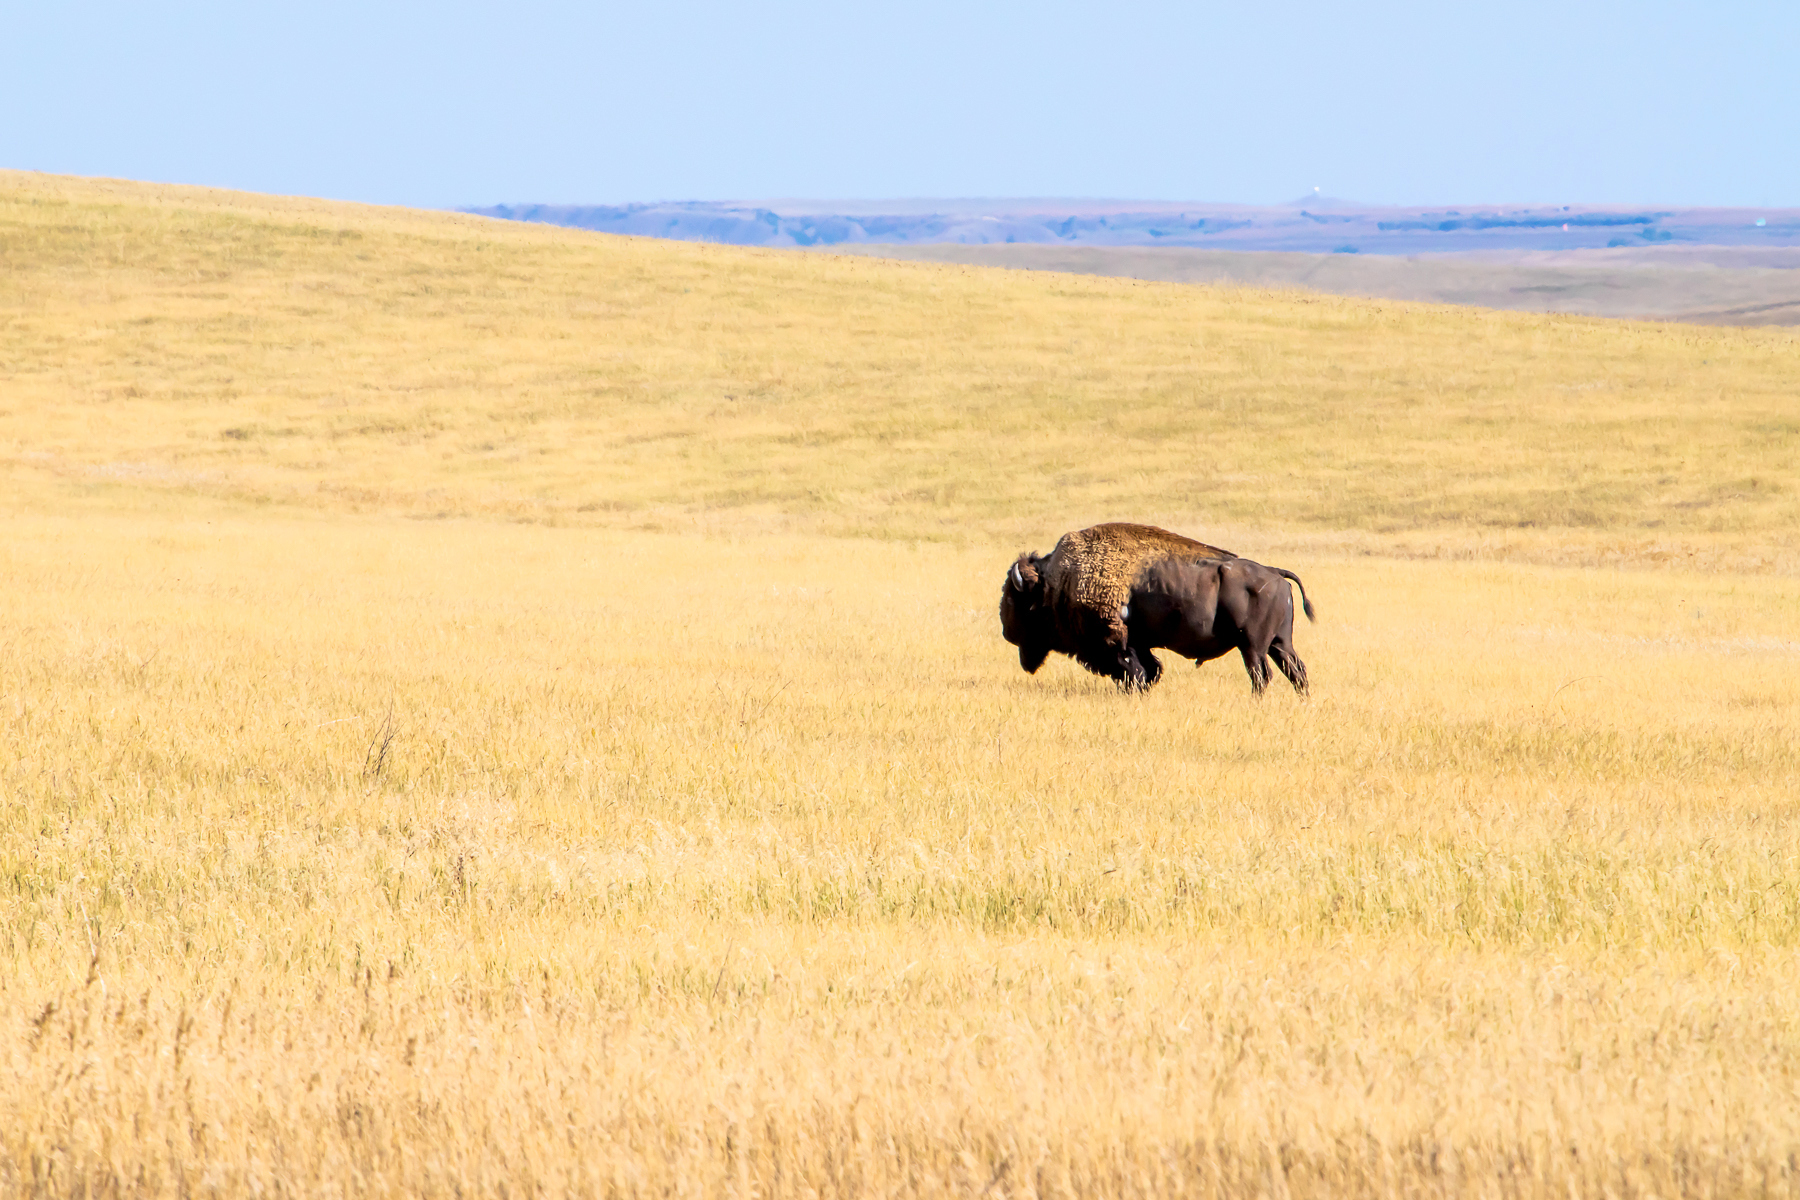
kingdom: Animalia
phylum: Chordata
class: Mammalia
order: Artiodactyla
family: Bovidae
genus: Bison
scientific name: Bison bison
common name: American bison
